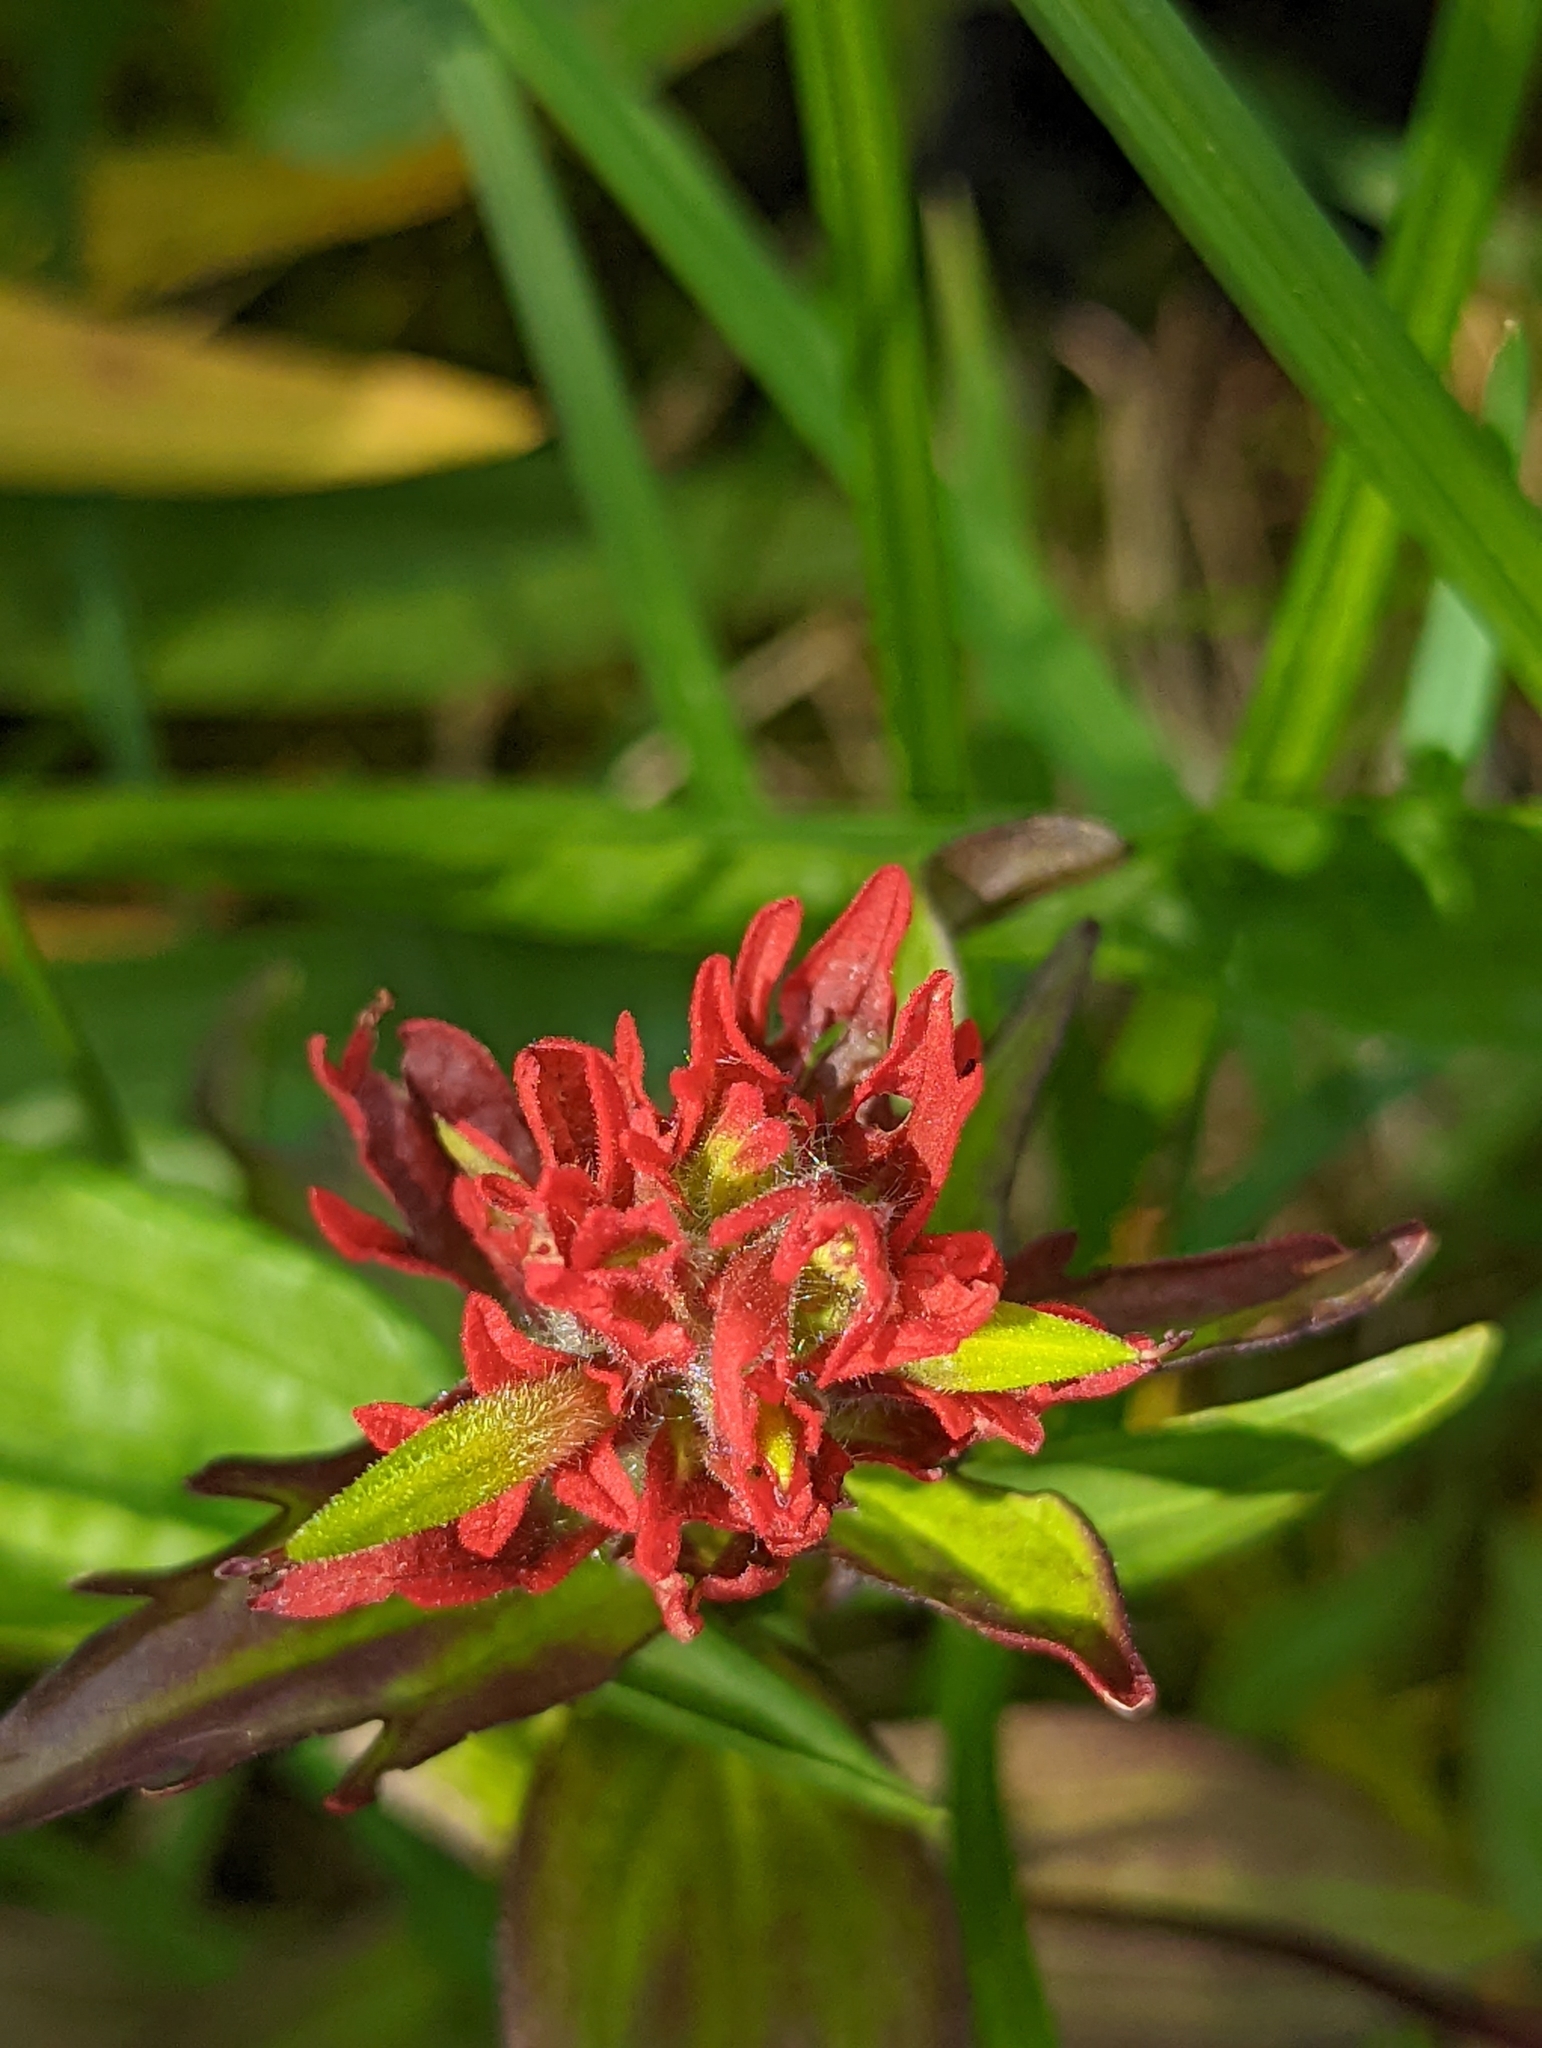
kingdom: Plantae
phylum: Tracheophyta
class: Magnoliopsida
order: Lamiales
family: Orobanchaceae
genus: Castilleja
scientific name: Castilleja miniata
